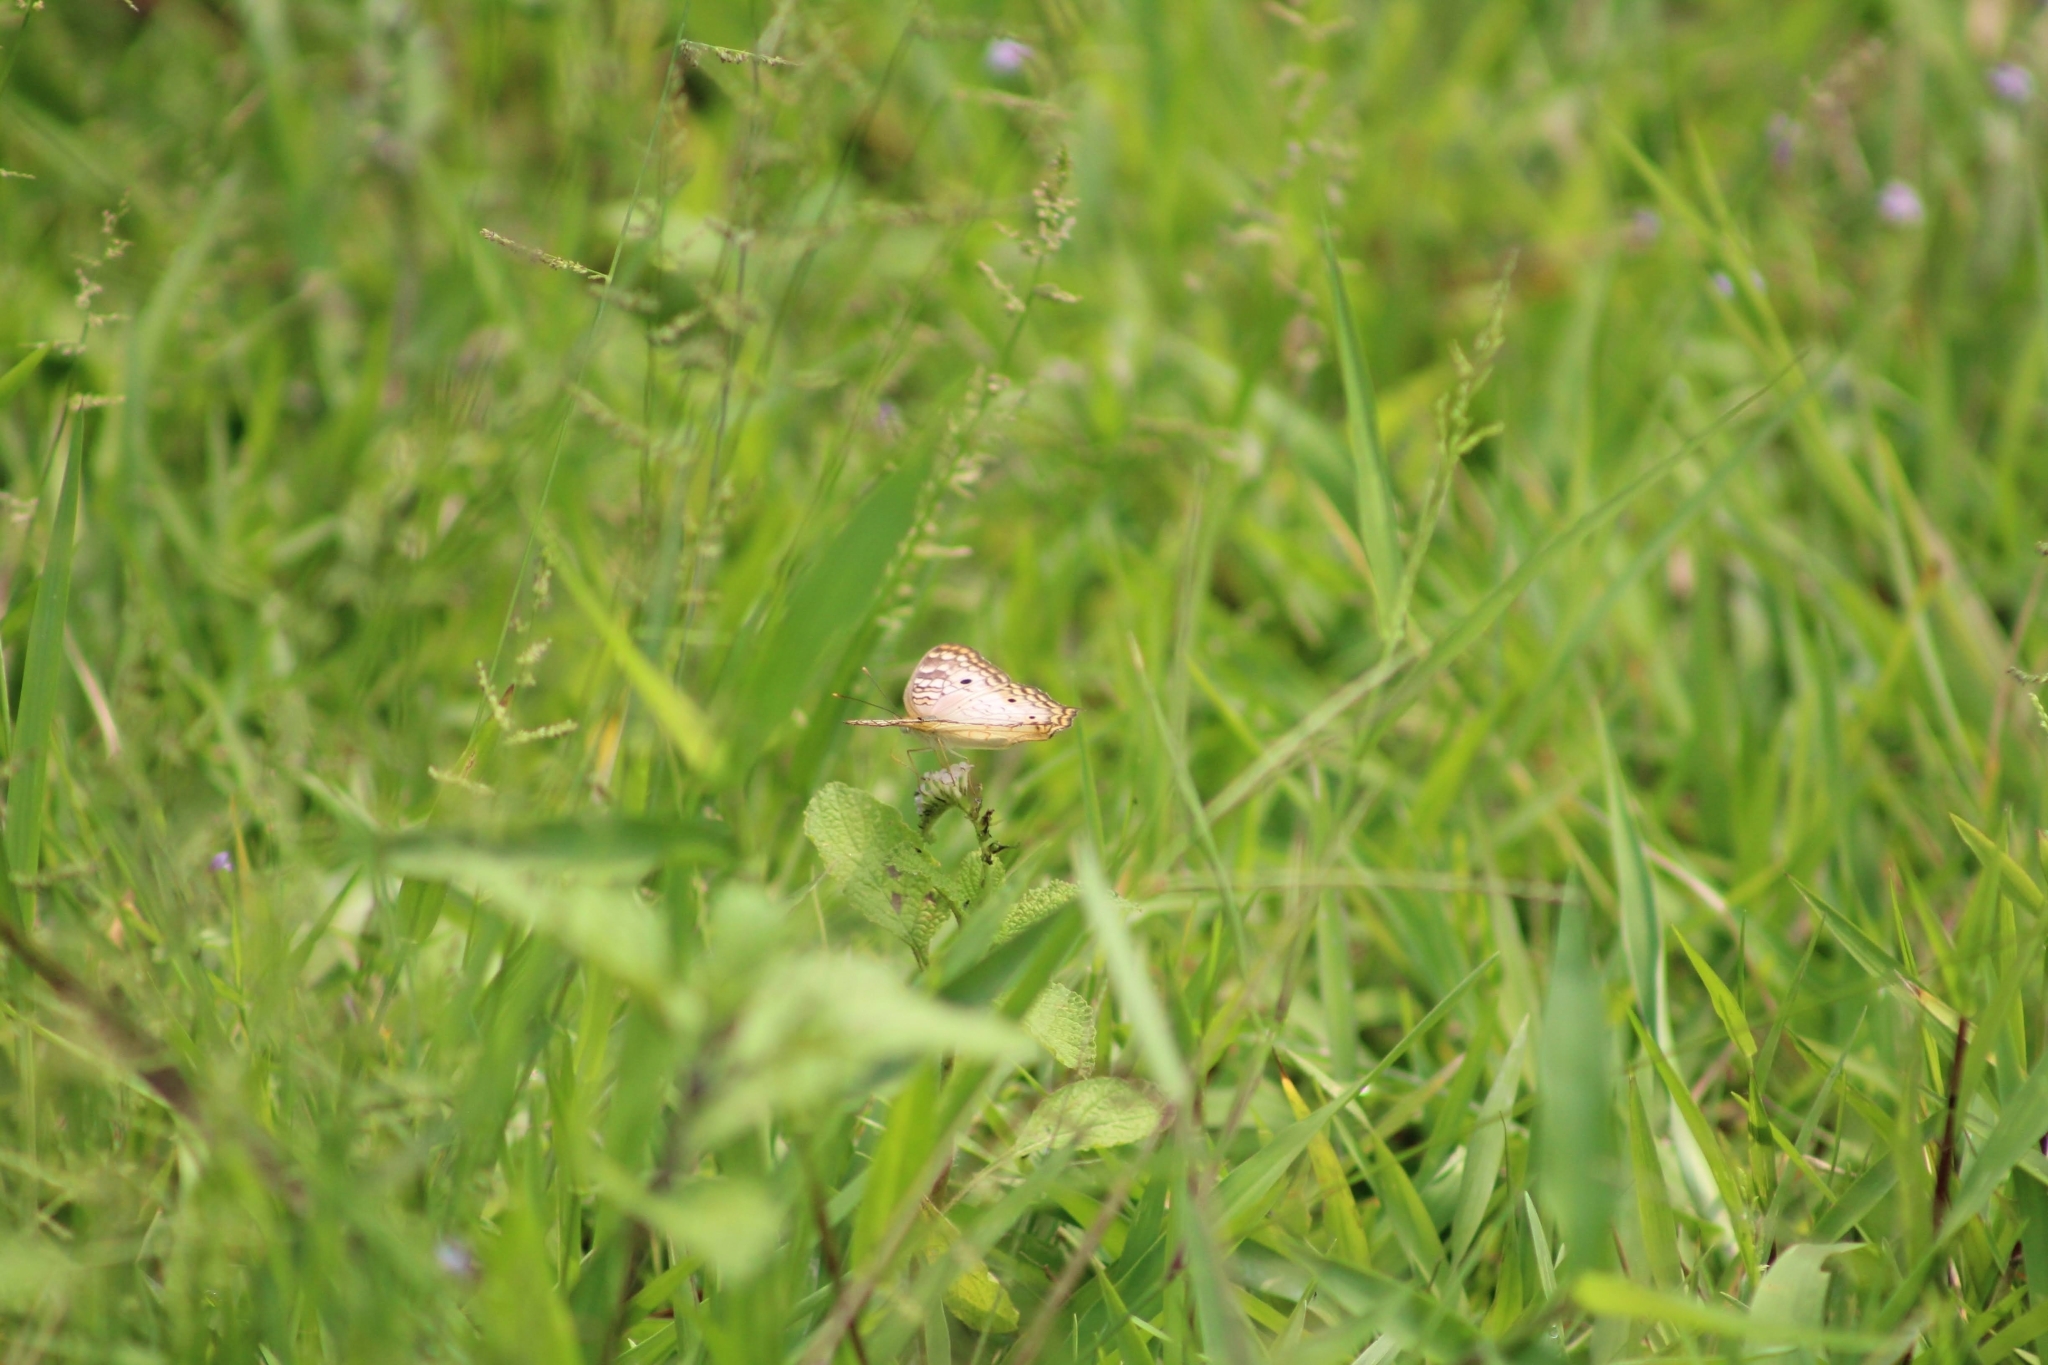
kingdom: Animalia
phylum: Arthropoda
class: Insecta
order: Lepidoptera
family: Nymphalidae
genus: Anartia
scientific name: Anartia jatrophae
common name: White peacock
